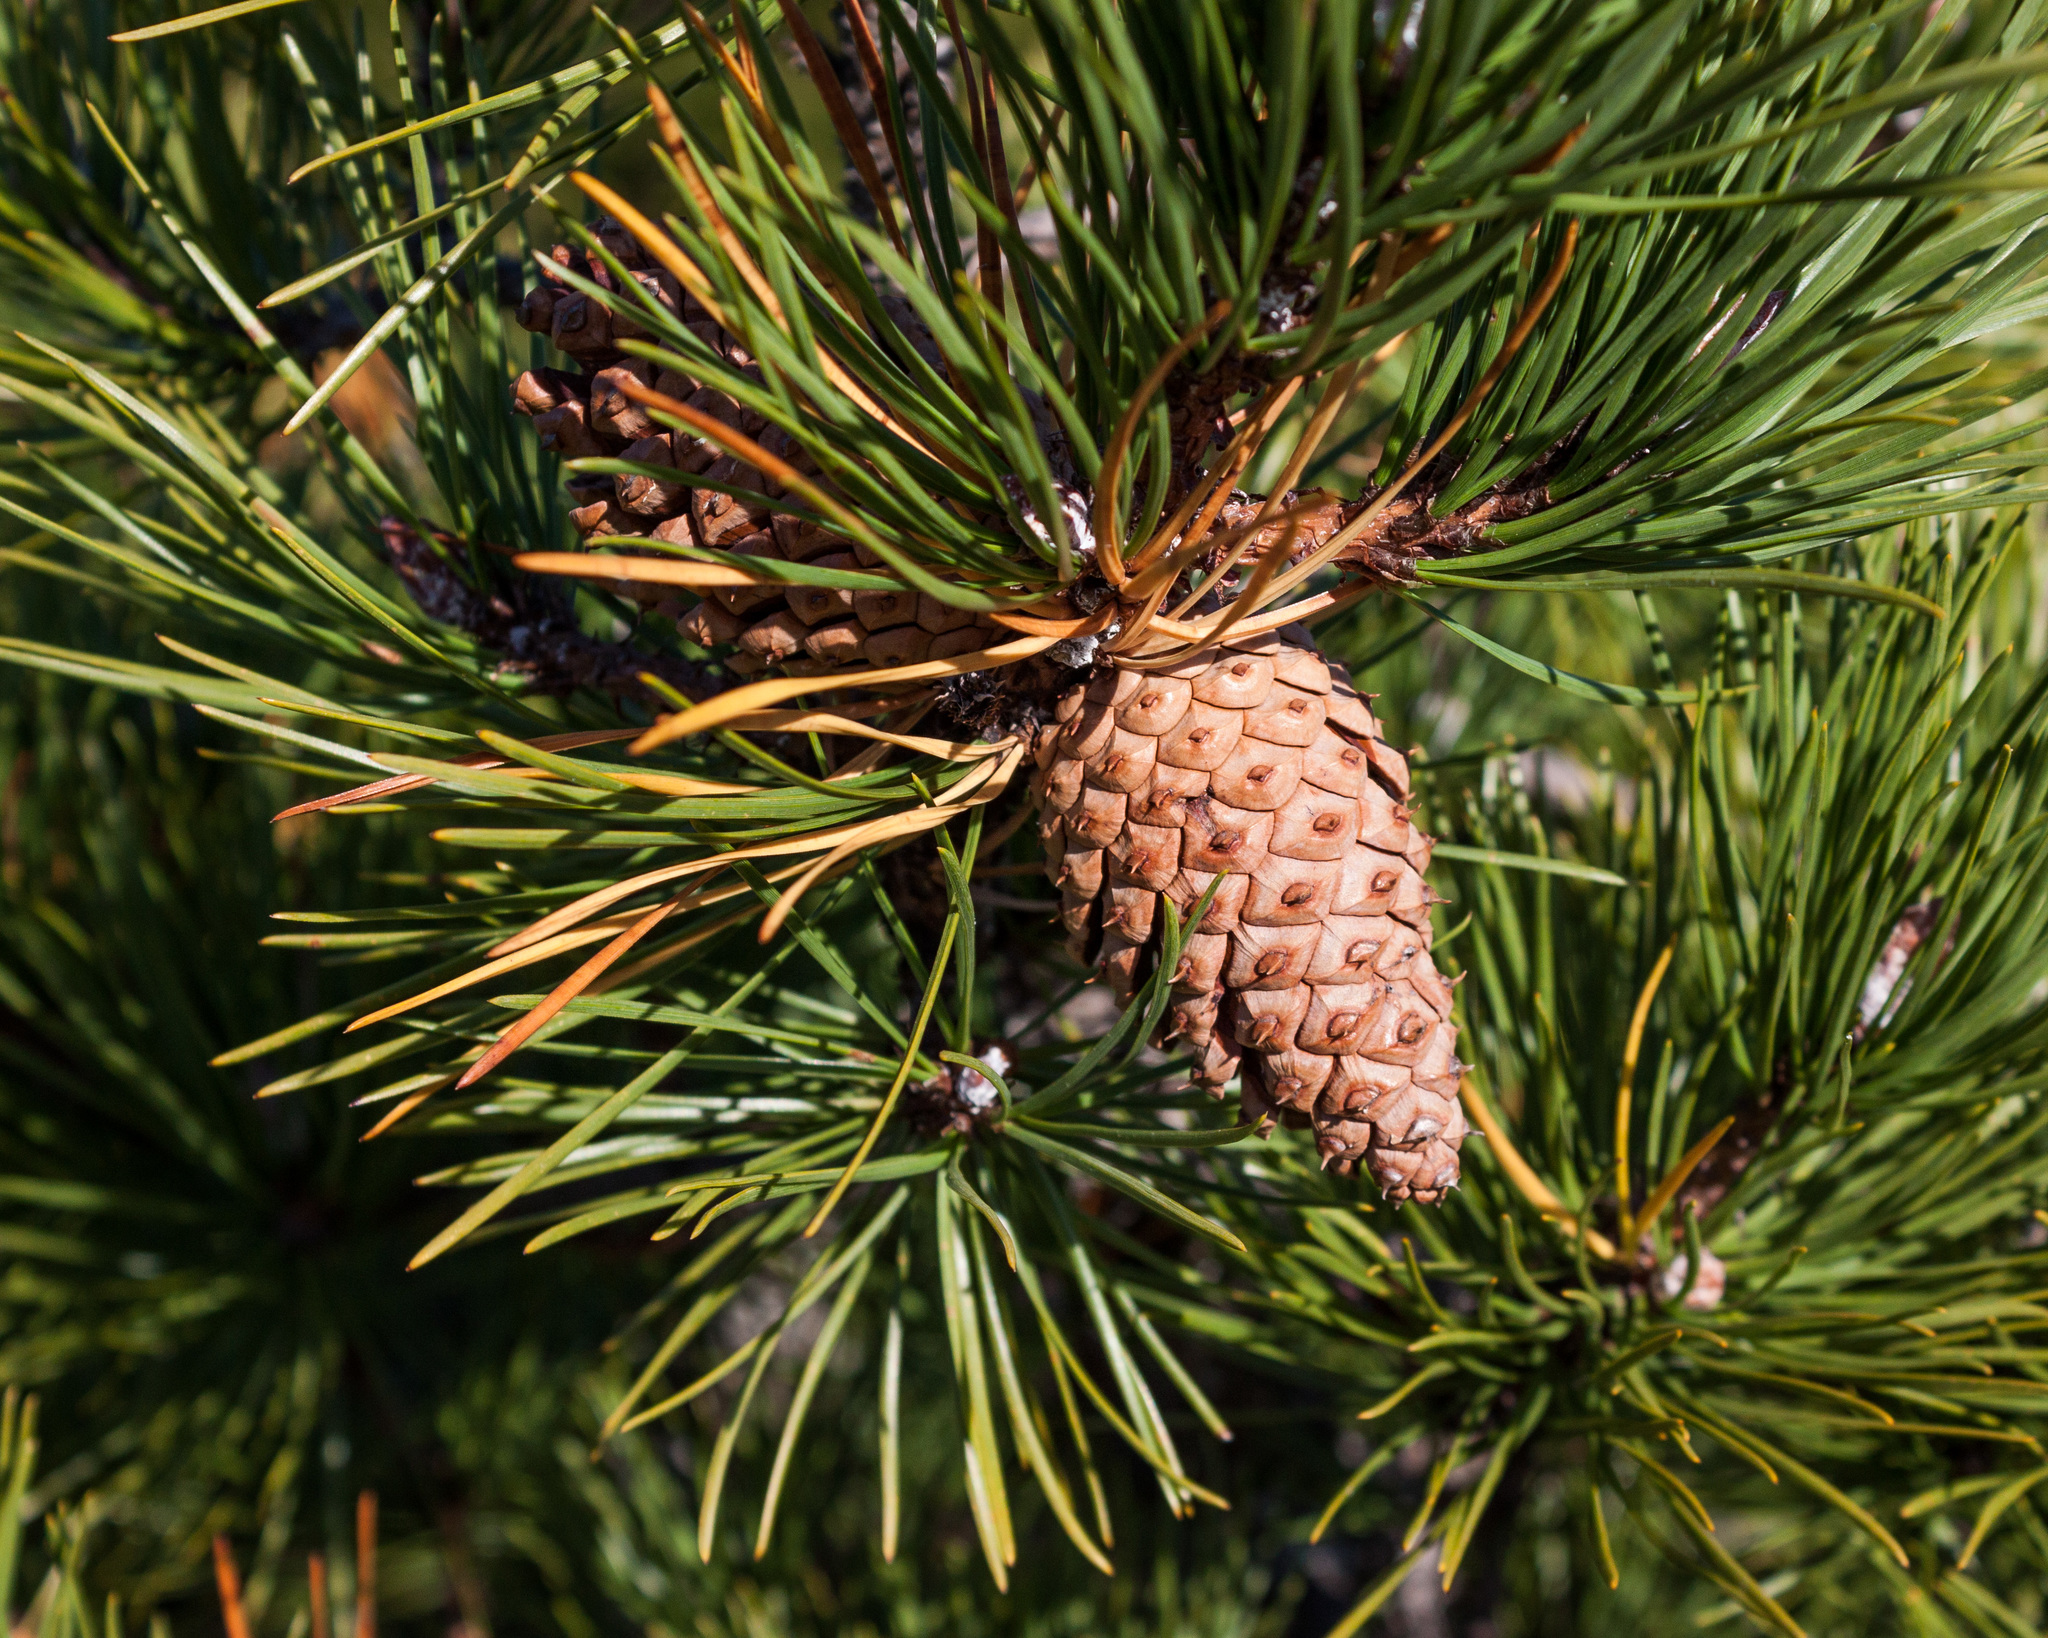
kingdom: Plantae
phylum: Tracheophyta
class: Pinopsida
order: Pinales
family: Pinaceae
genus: Pinus
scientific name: Pinus rigida
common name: Pitch pine
